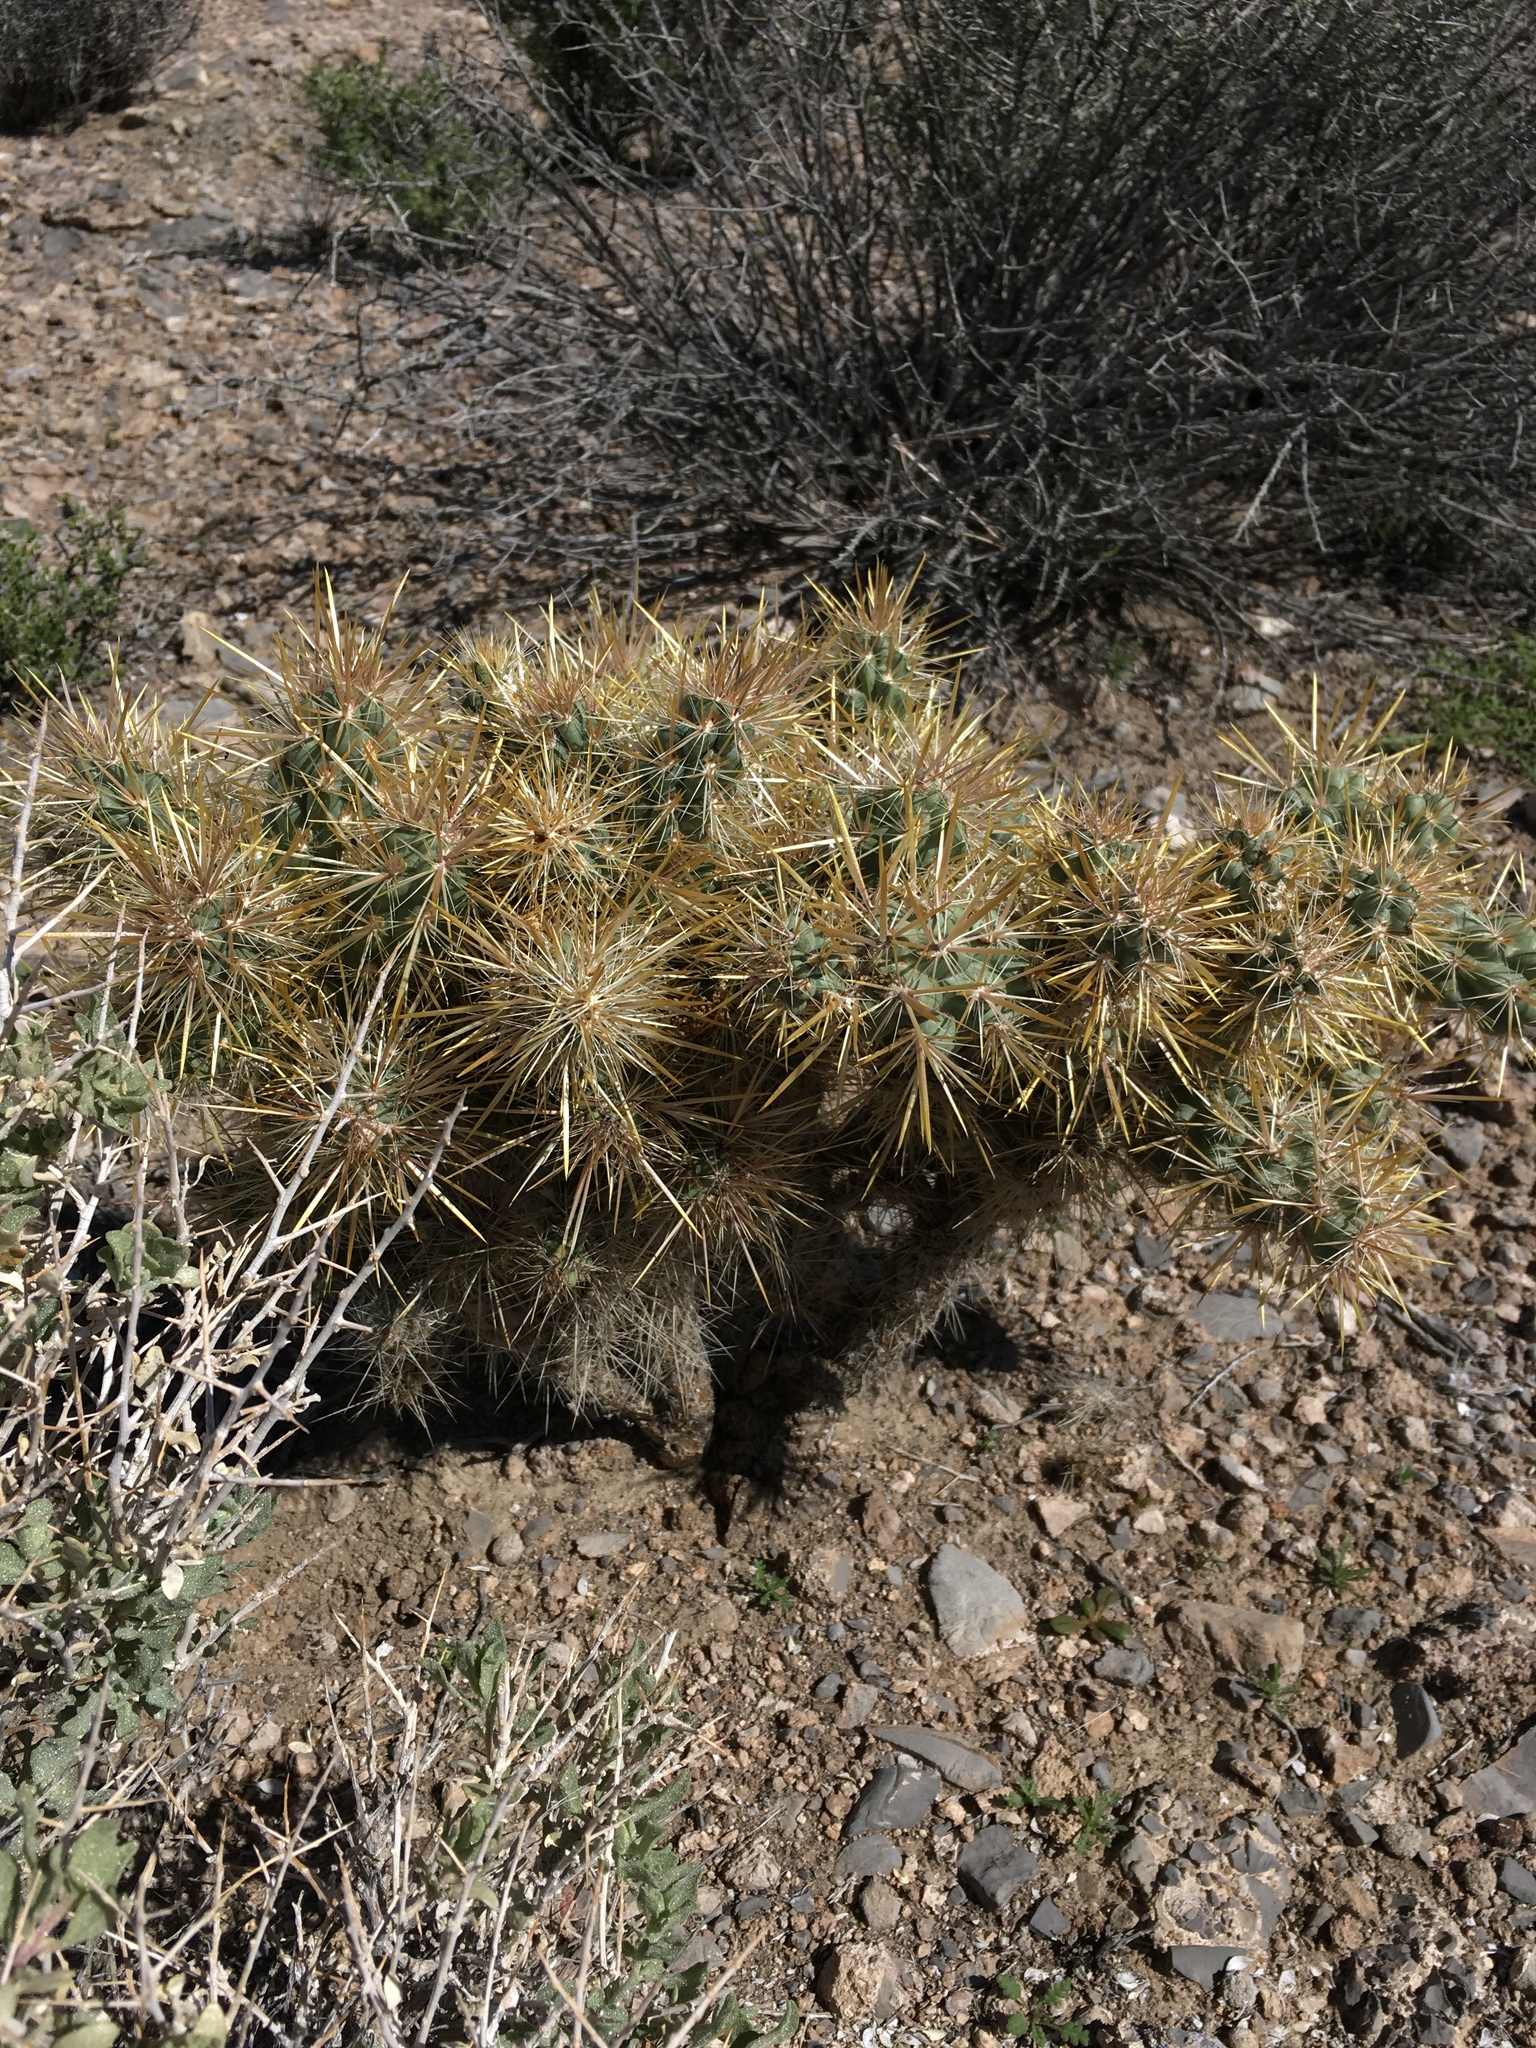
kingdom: Plantae
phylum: Tracheophyta
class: Magnoliopsida
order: Caryophyllales
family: Cactaceae
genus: Cylindropuntia
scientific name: Cylindropuntia echinocarpa
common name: Ground cholla
